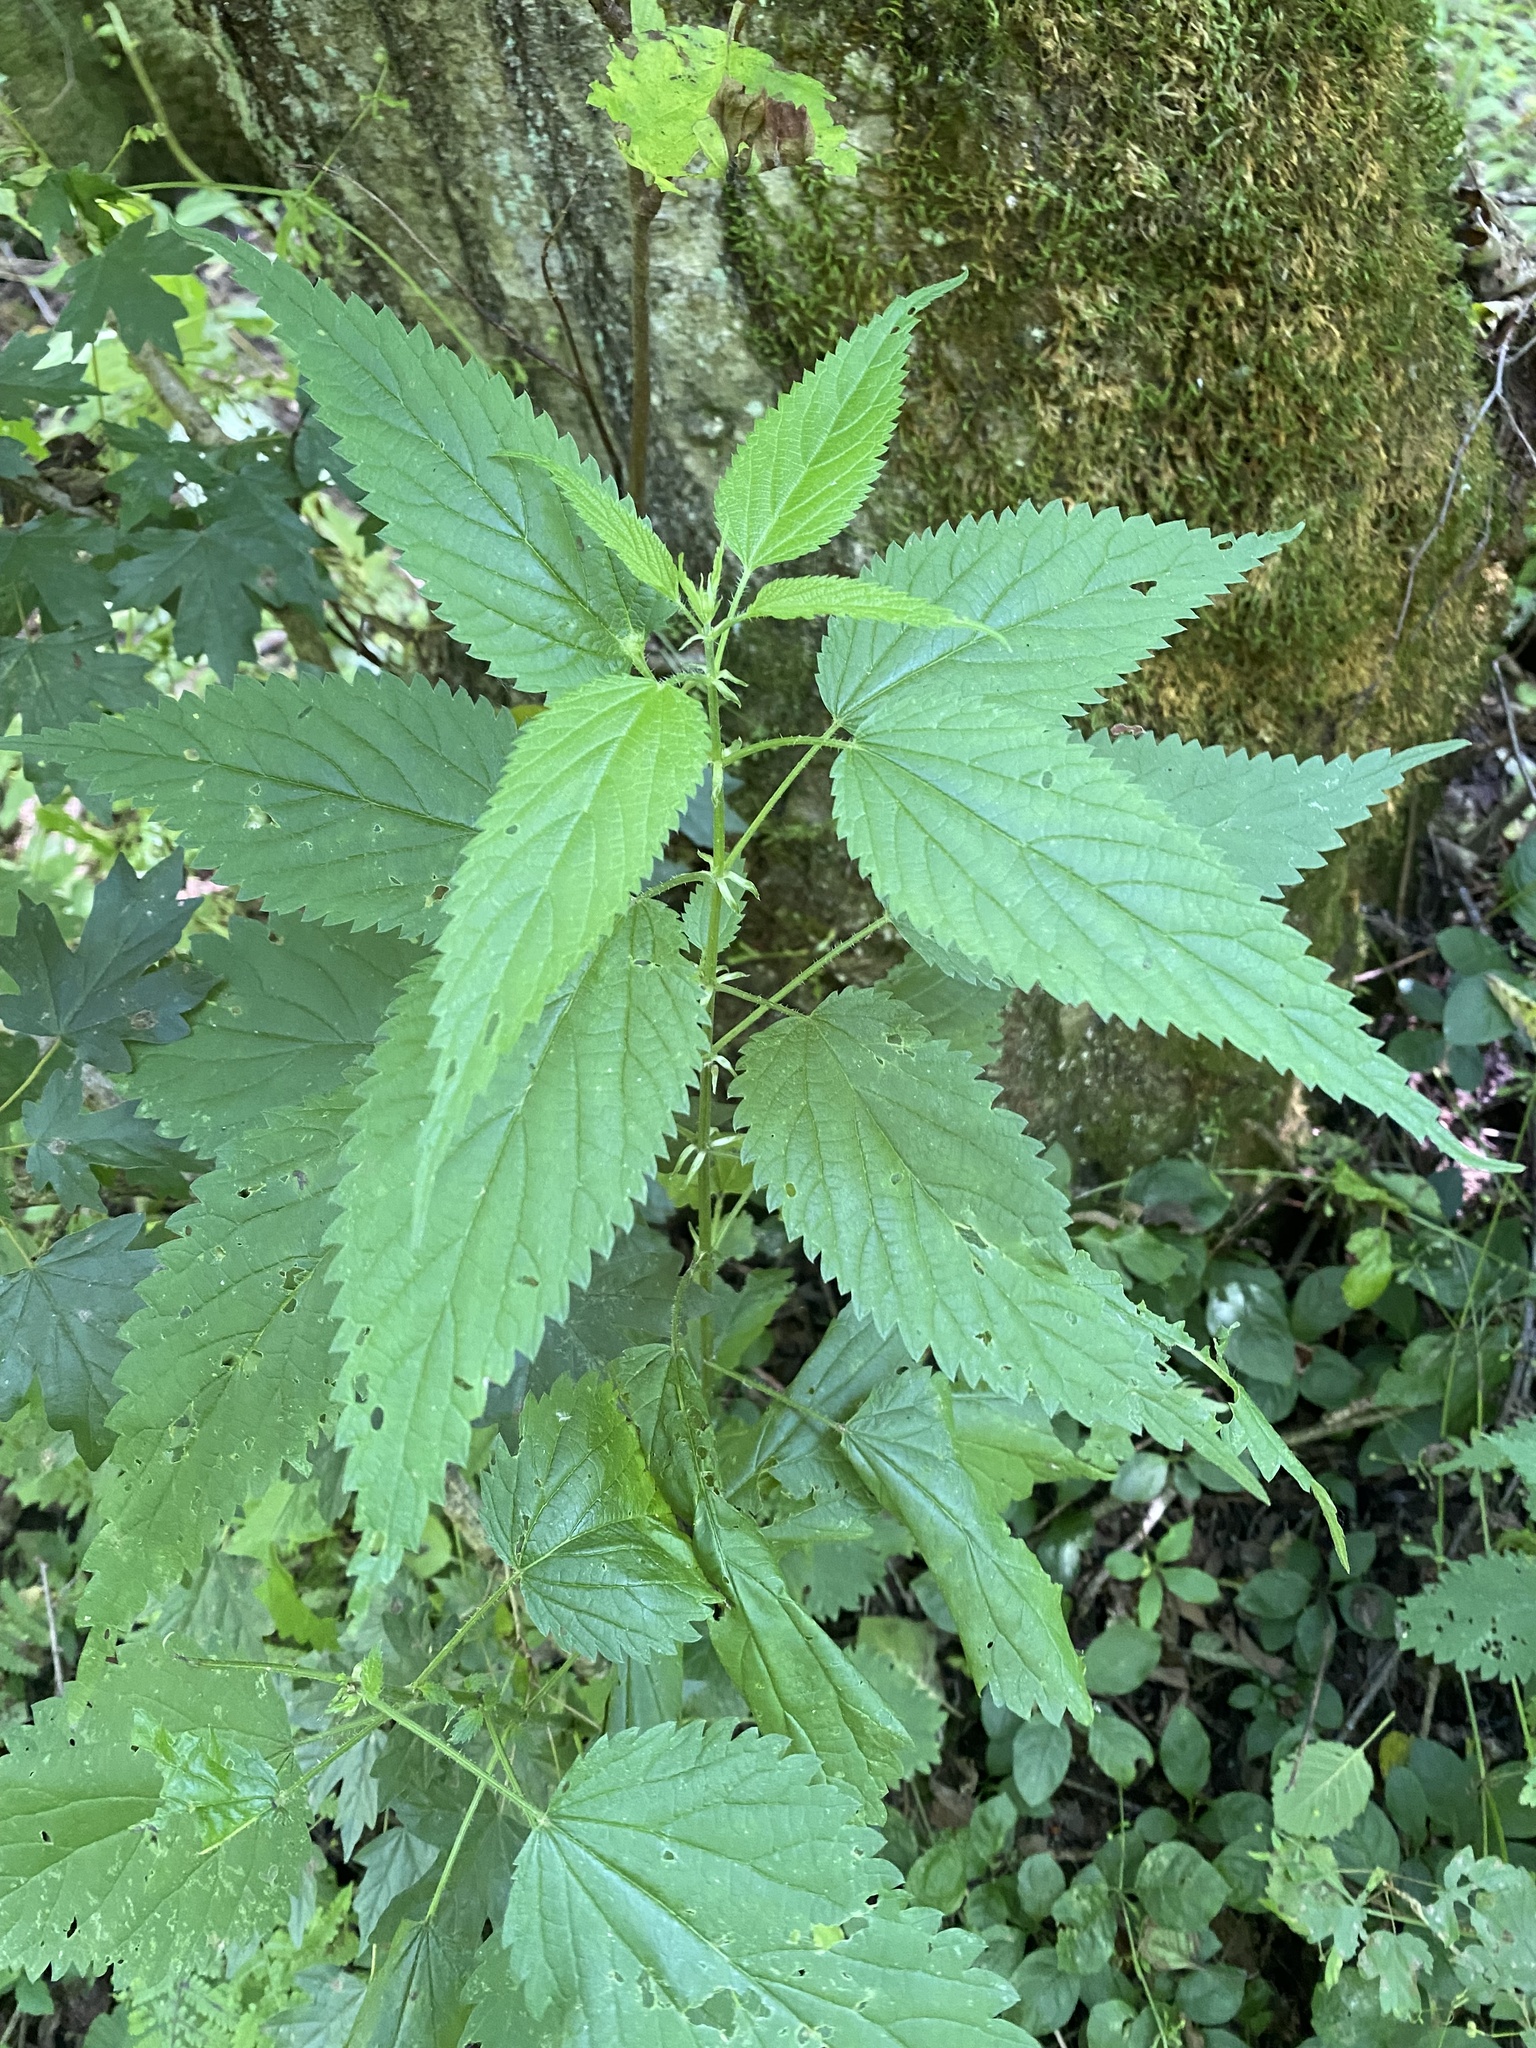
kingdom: Plantae
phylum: Tracheophyta
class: Magnoliopsida
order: Rosales
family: Urticaceae
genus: Urtica
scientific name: Urtica dioica
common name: Common nettle
